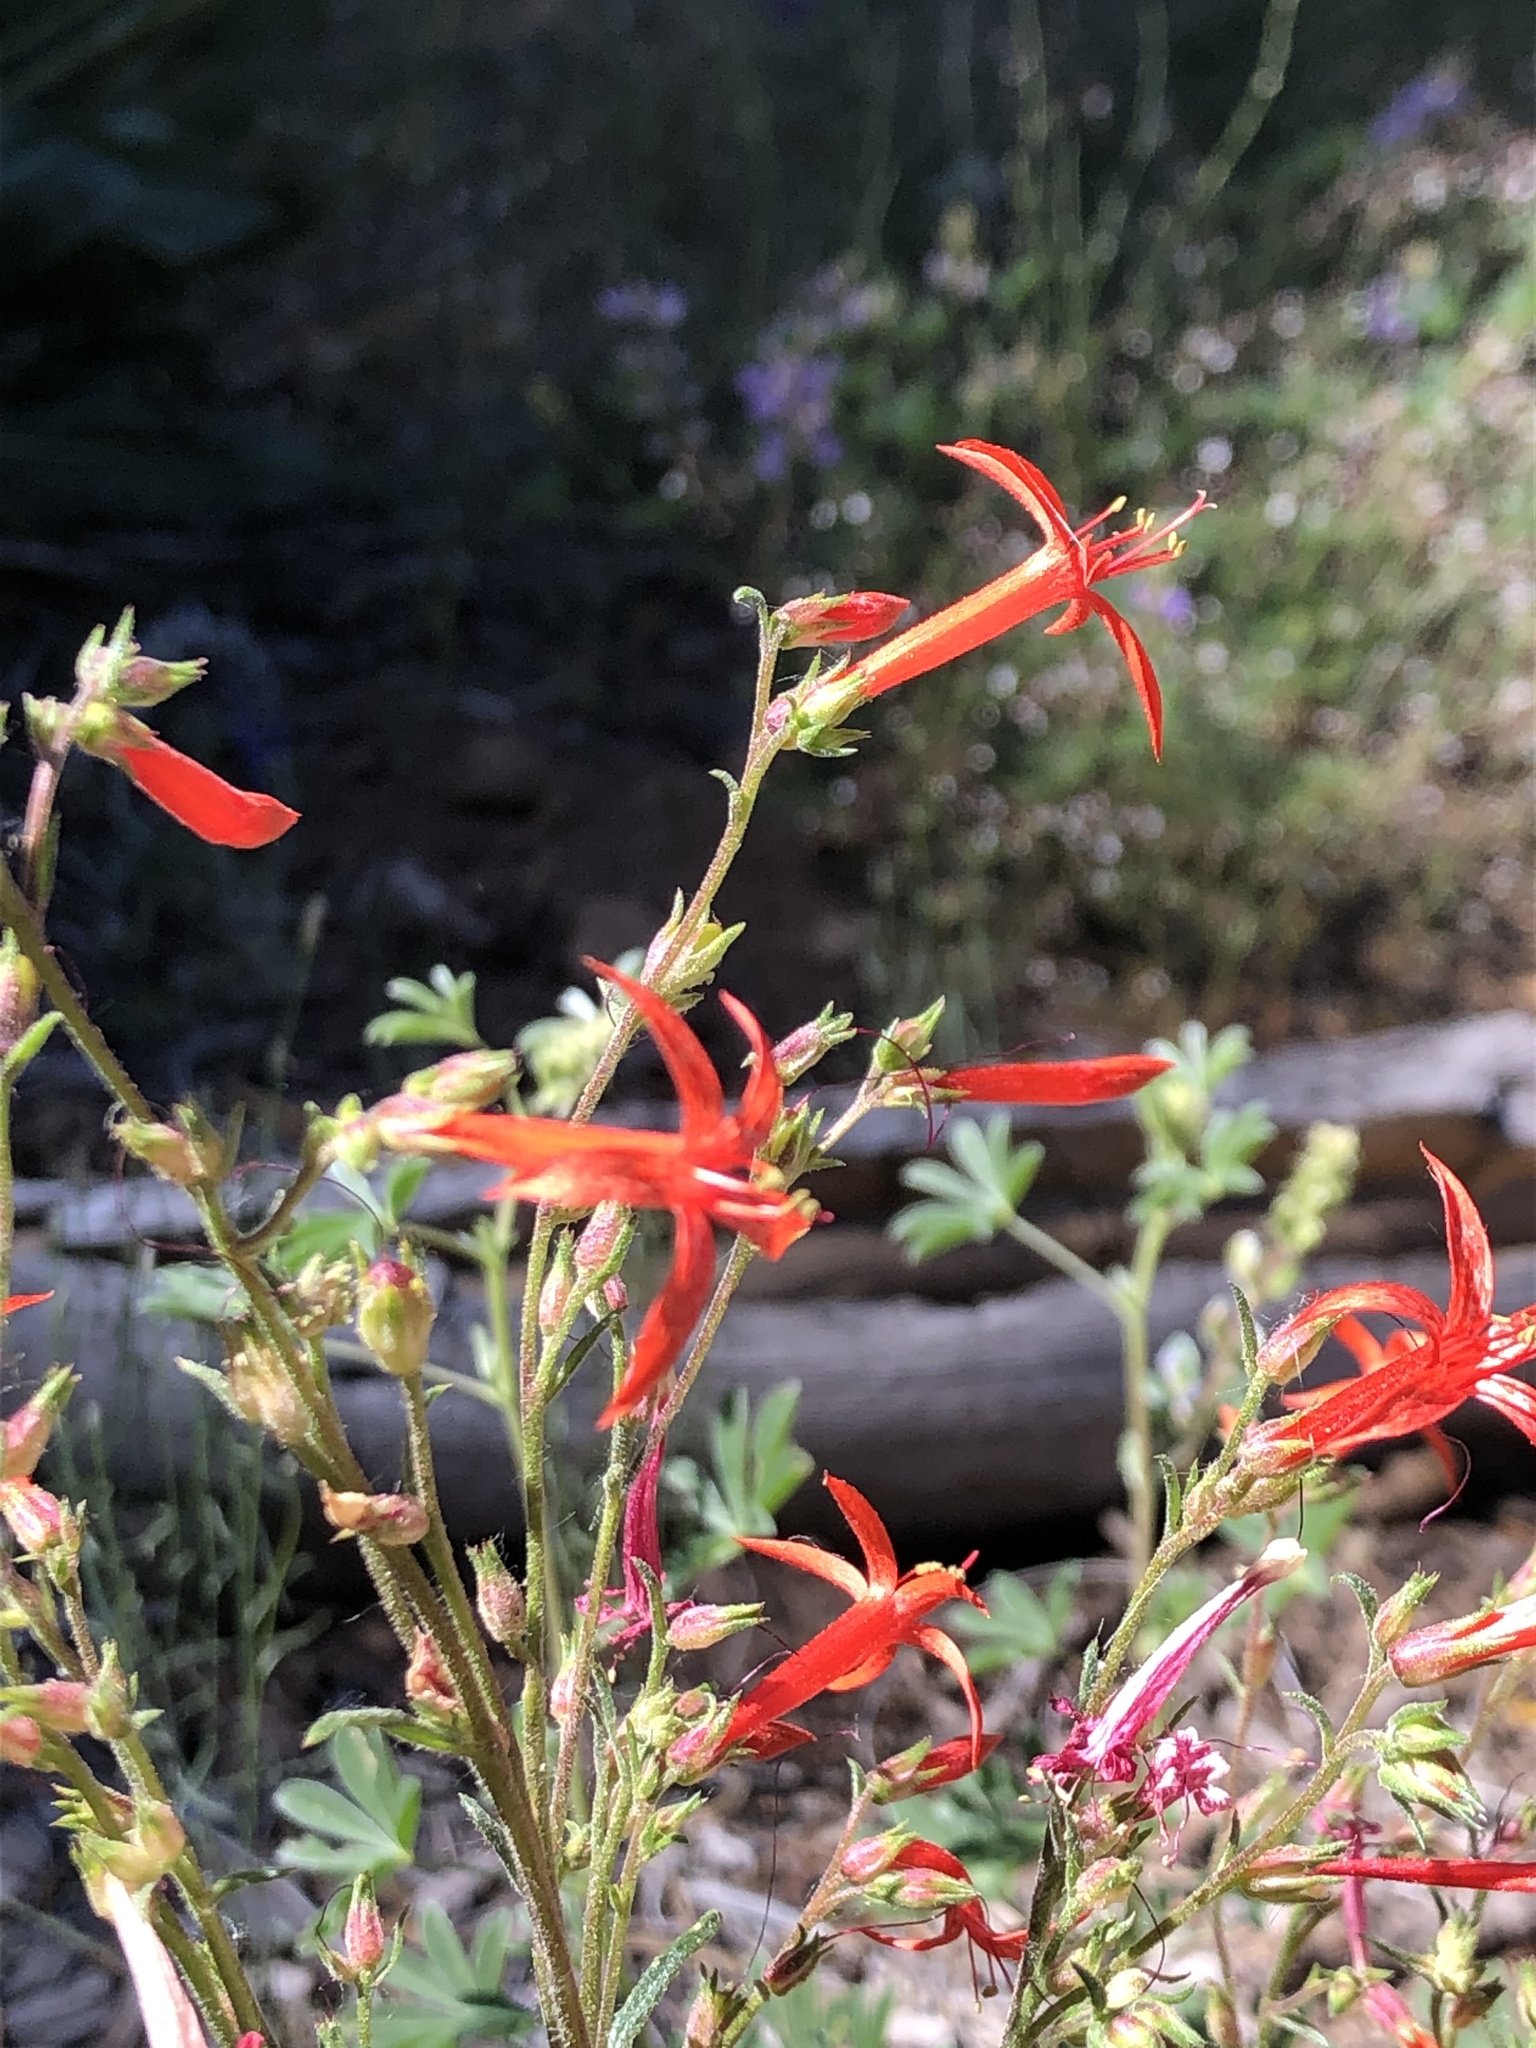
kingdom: Plantae
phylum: Tracheophyta
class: Magnoliopsida
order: Ericales
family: Polemoniaceae
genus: Ipomopsis
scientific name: Ipomopsis aggregata
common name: Scarlet gilia
